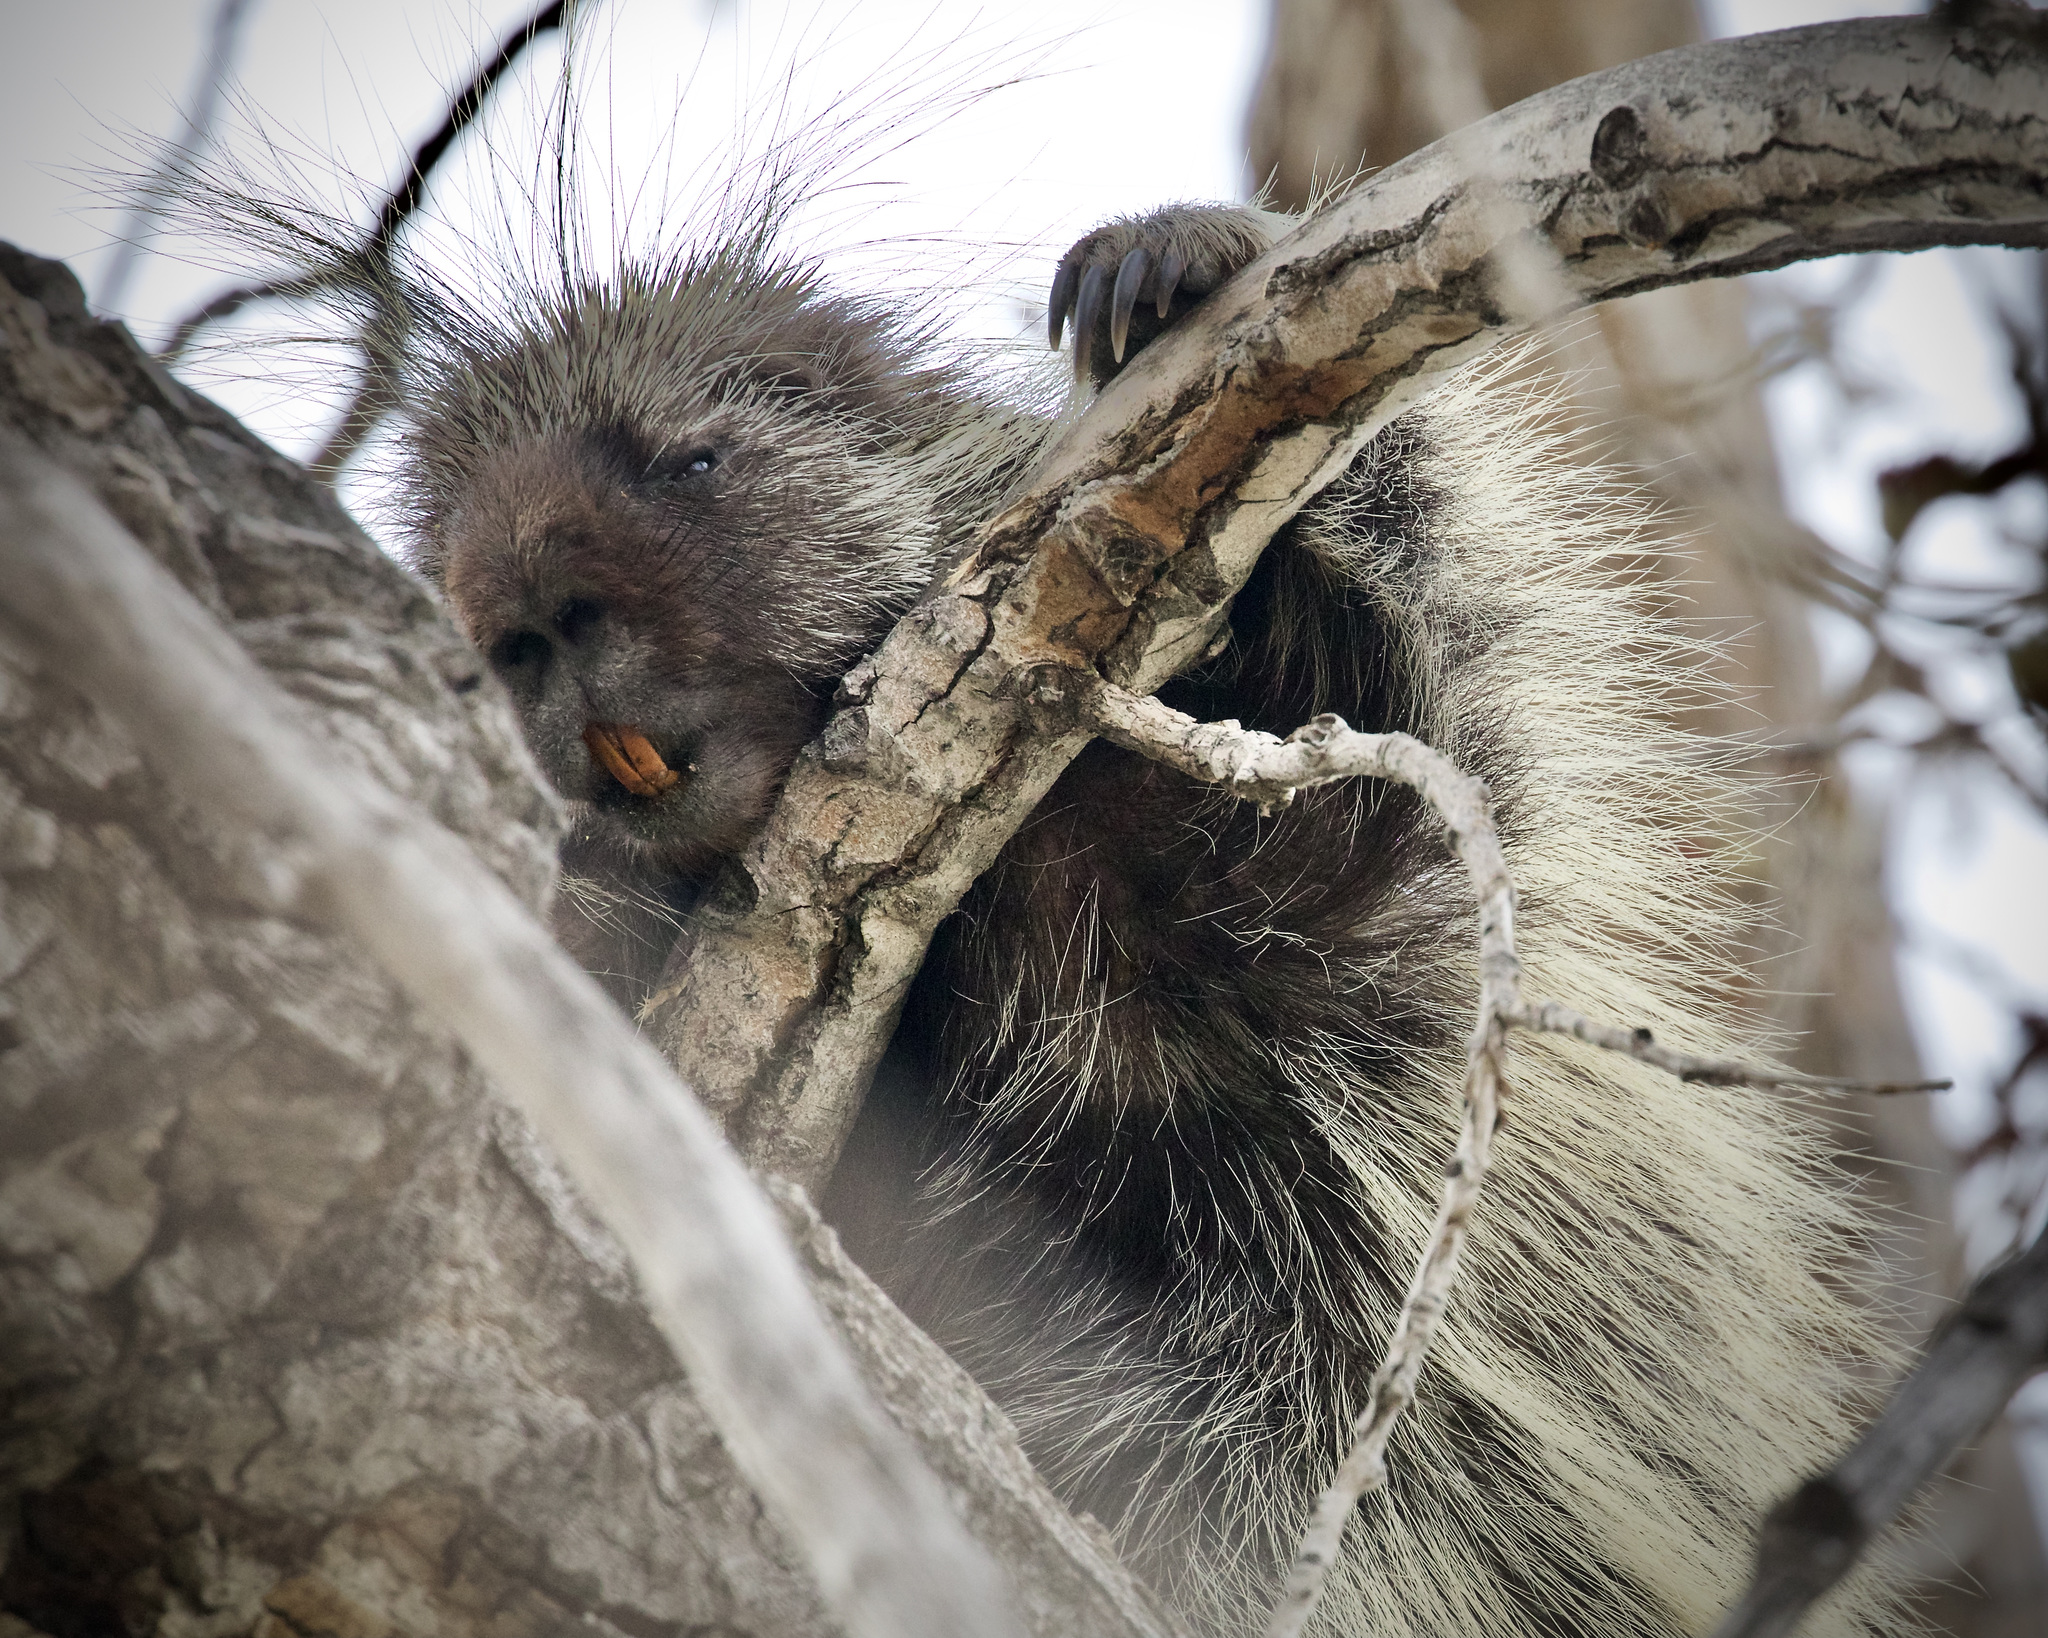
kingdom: Animalia
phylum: Chordata
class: Mammalia
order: Rodentia
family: Erethizontidae
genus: Erethizon
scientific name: Erethizon dorsatus
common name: North american porcupine
